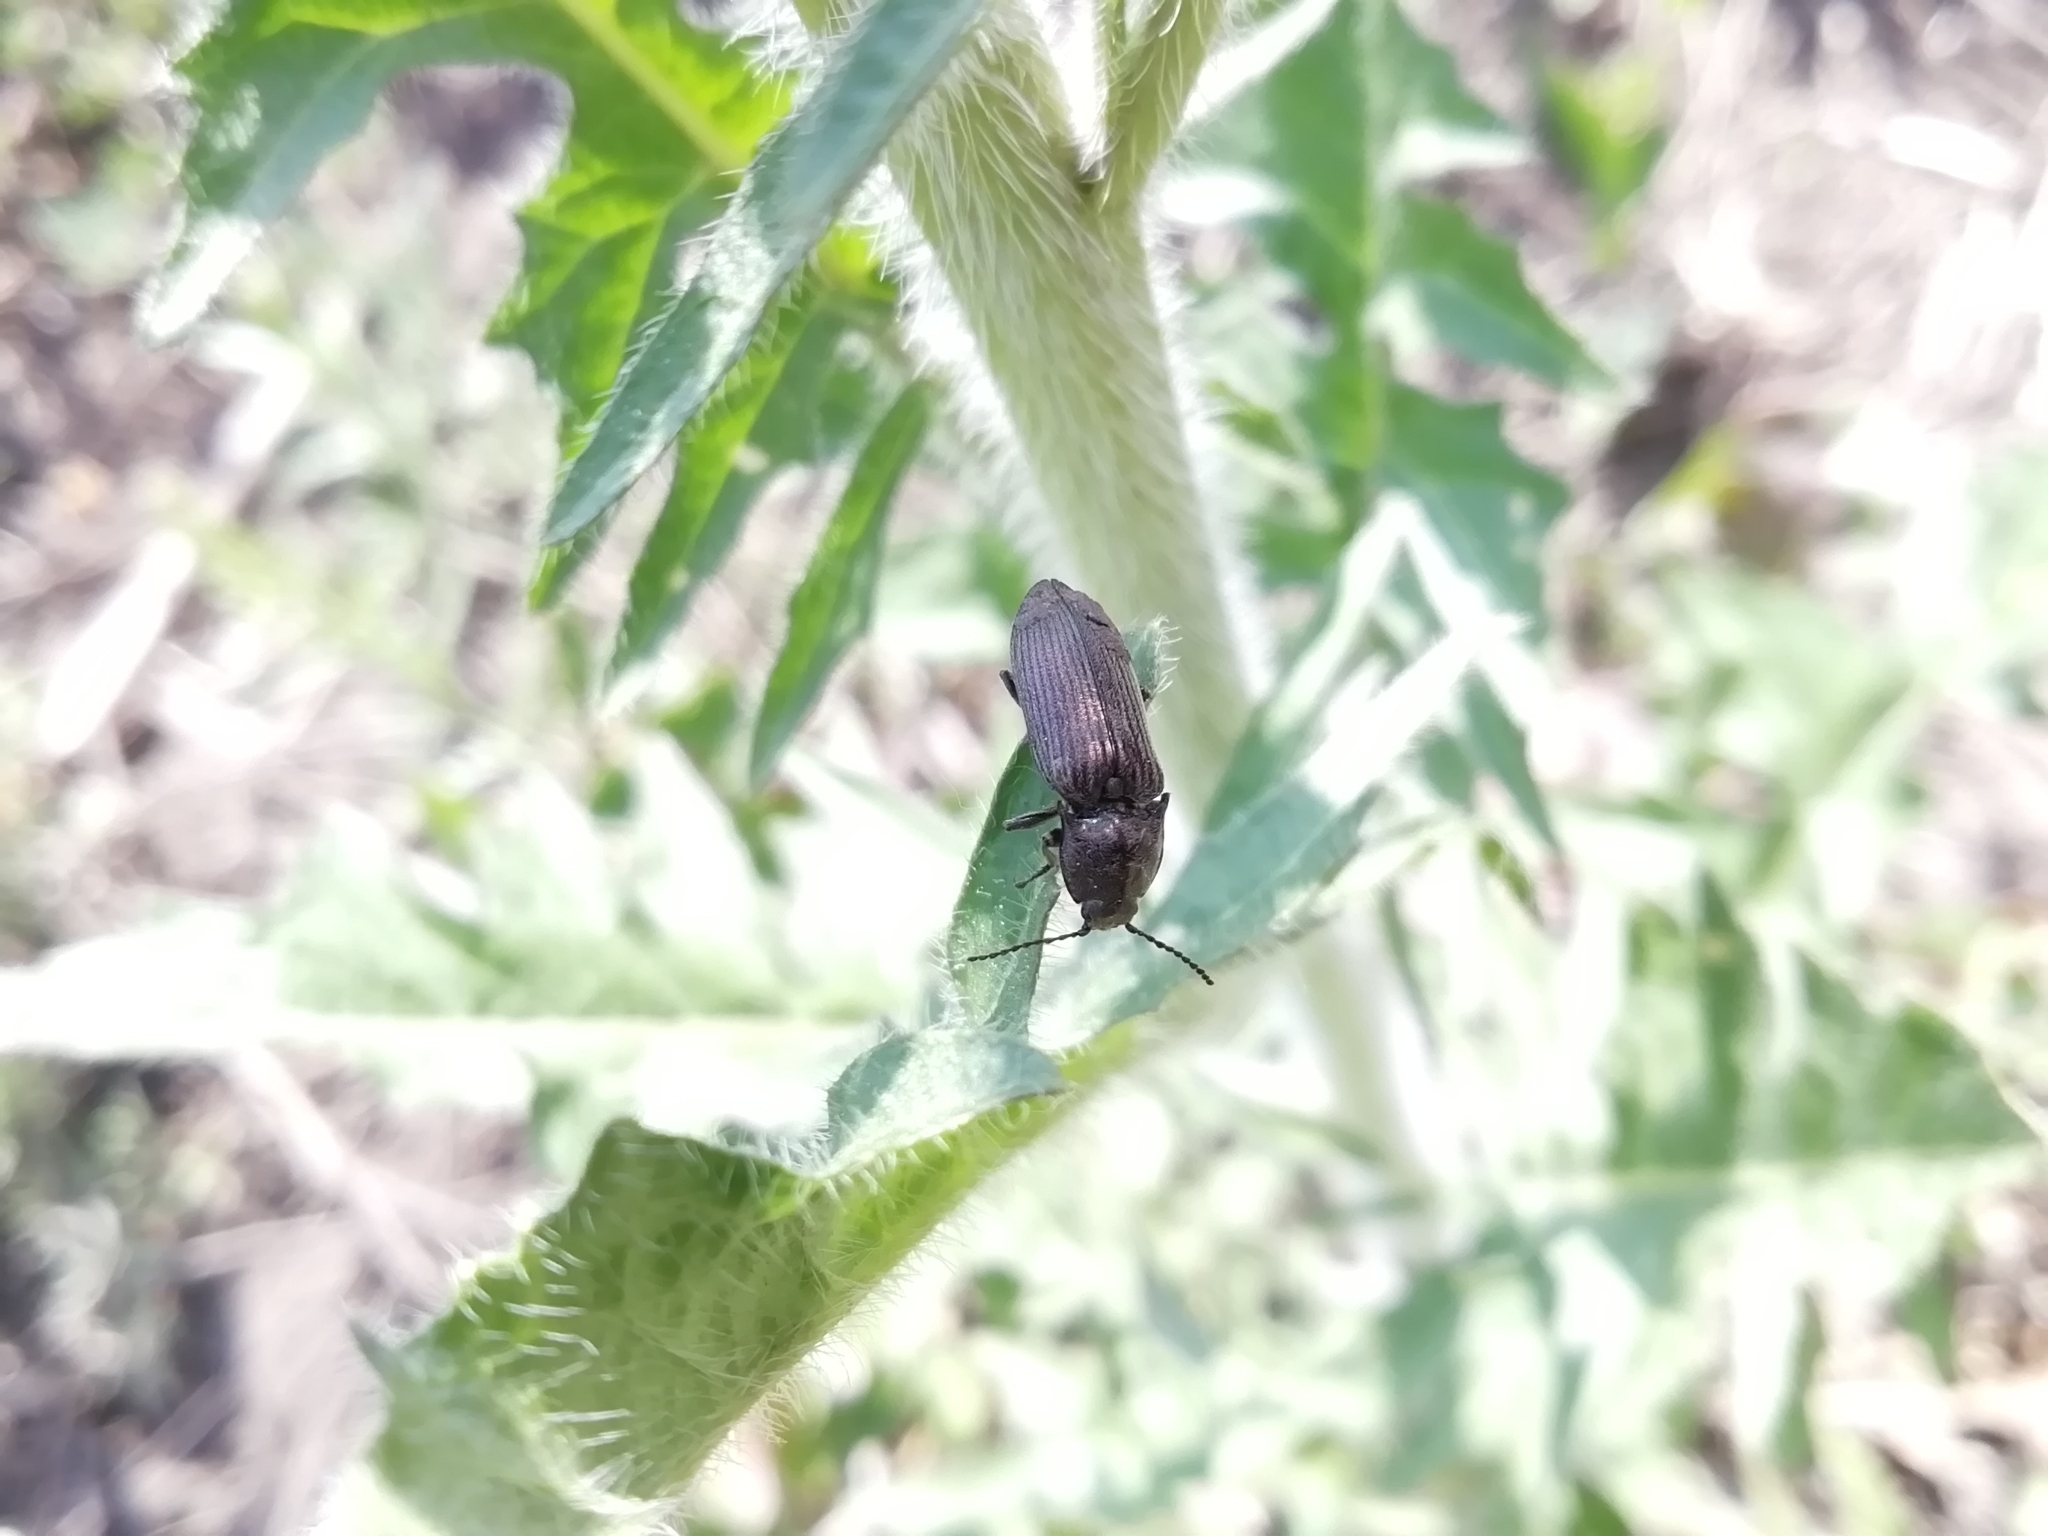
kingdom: Animalia
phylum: Arthropoda
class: Insecta
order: Coleoptera
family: Elateridae
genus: Selatosomus
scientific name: Selatosomus latus
